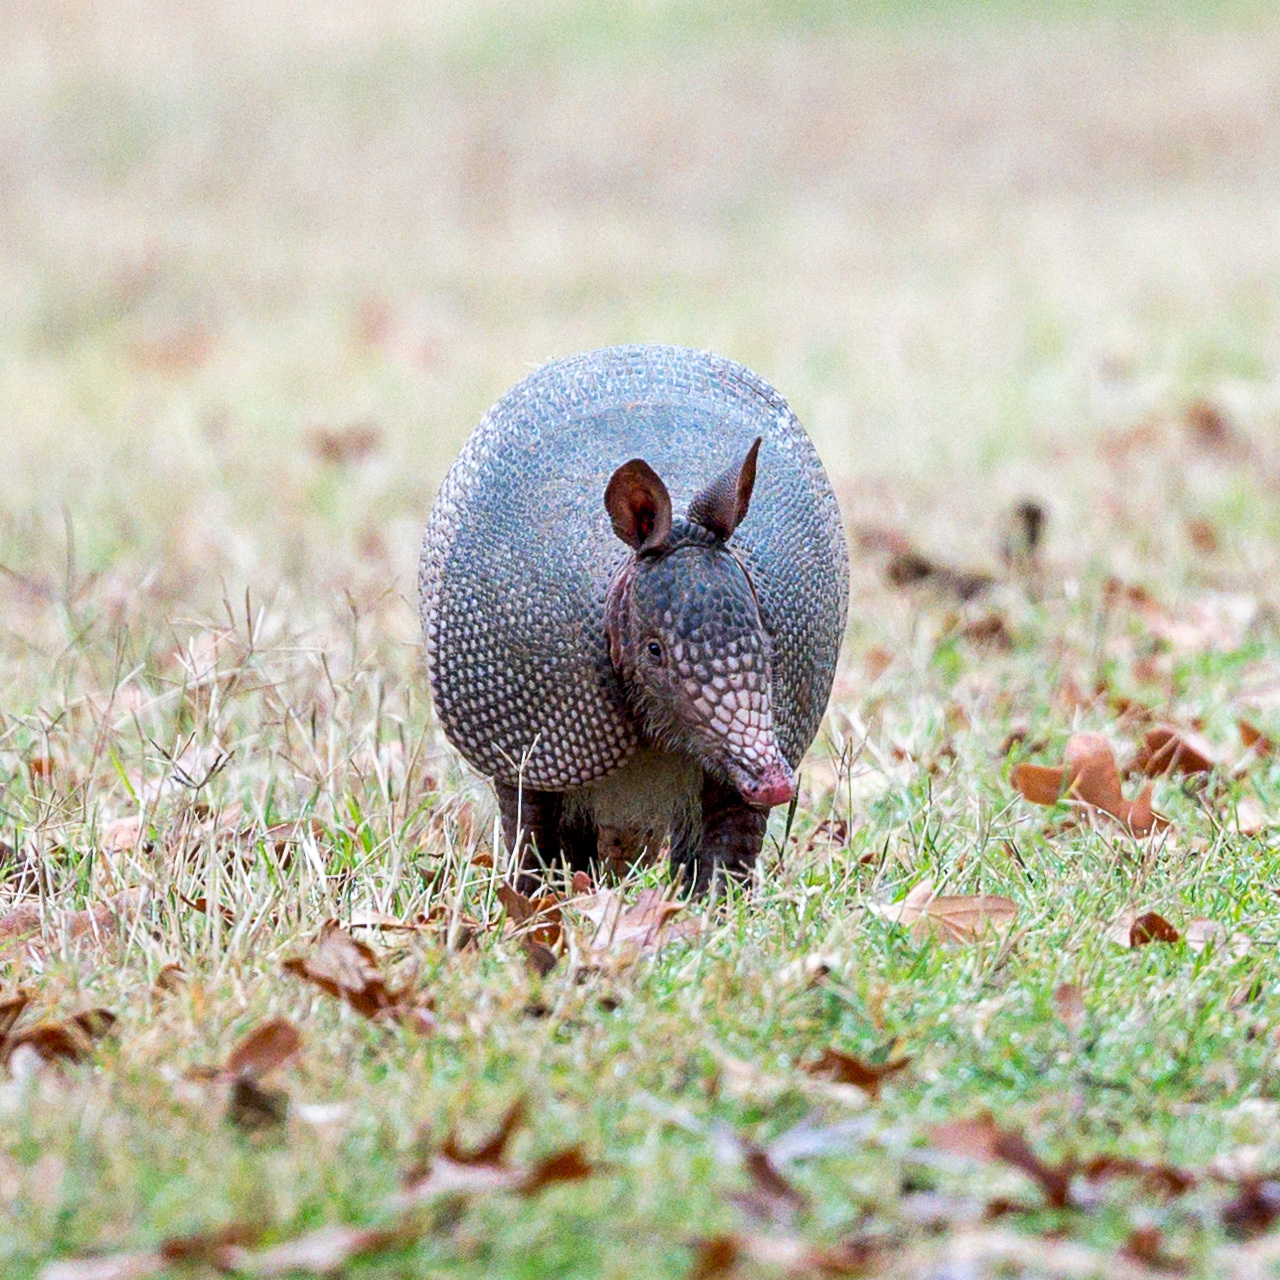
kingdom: Animalia
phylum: Chordata
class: Mammalia
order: Cingulata
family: Dasypodidae
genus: Dasypus
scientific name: Dasypus novemcinctus
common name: Nine-banded armadillo
